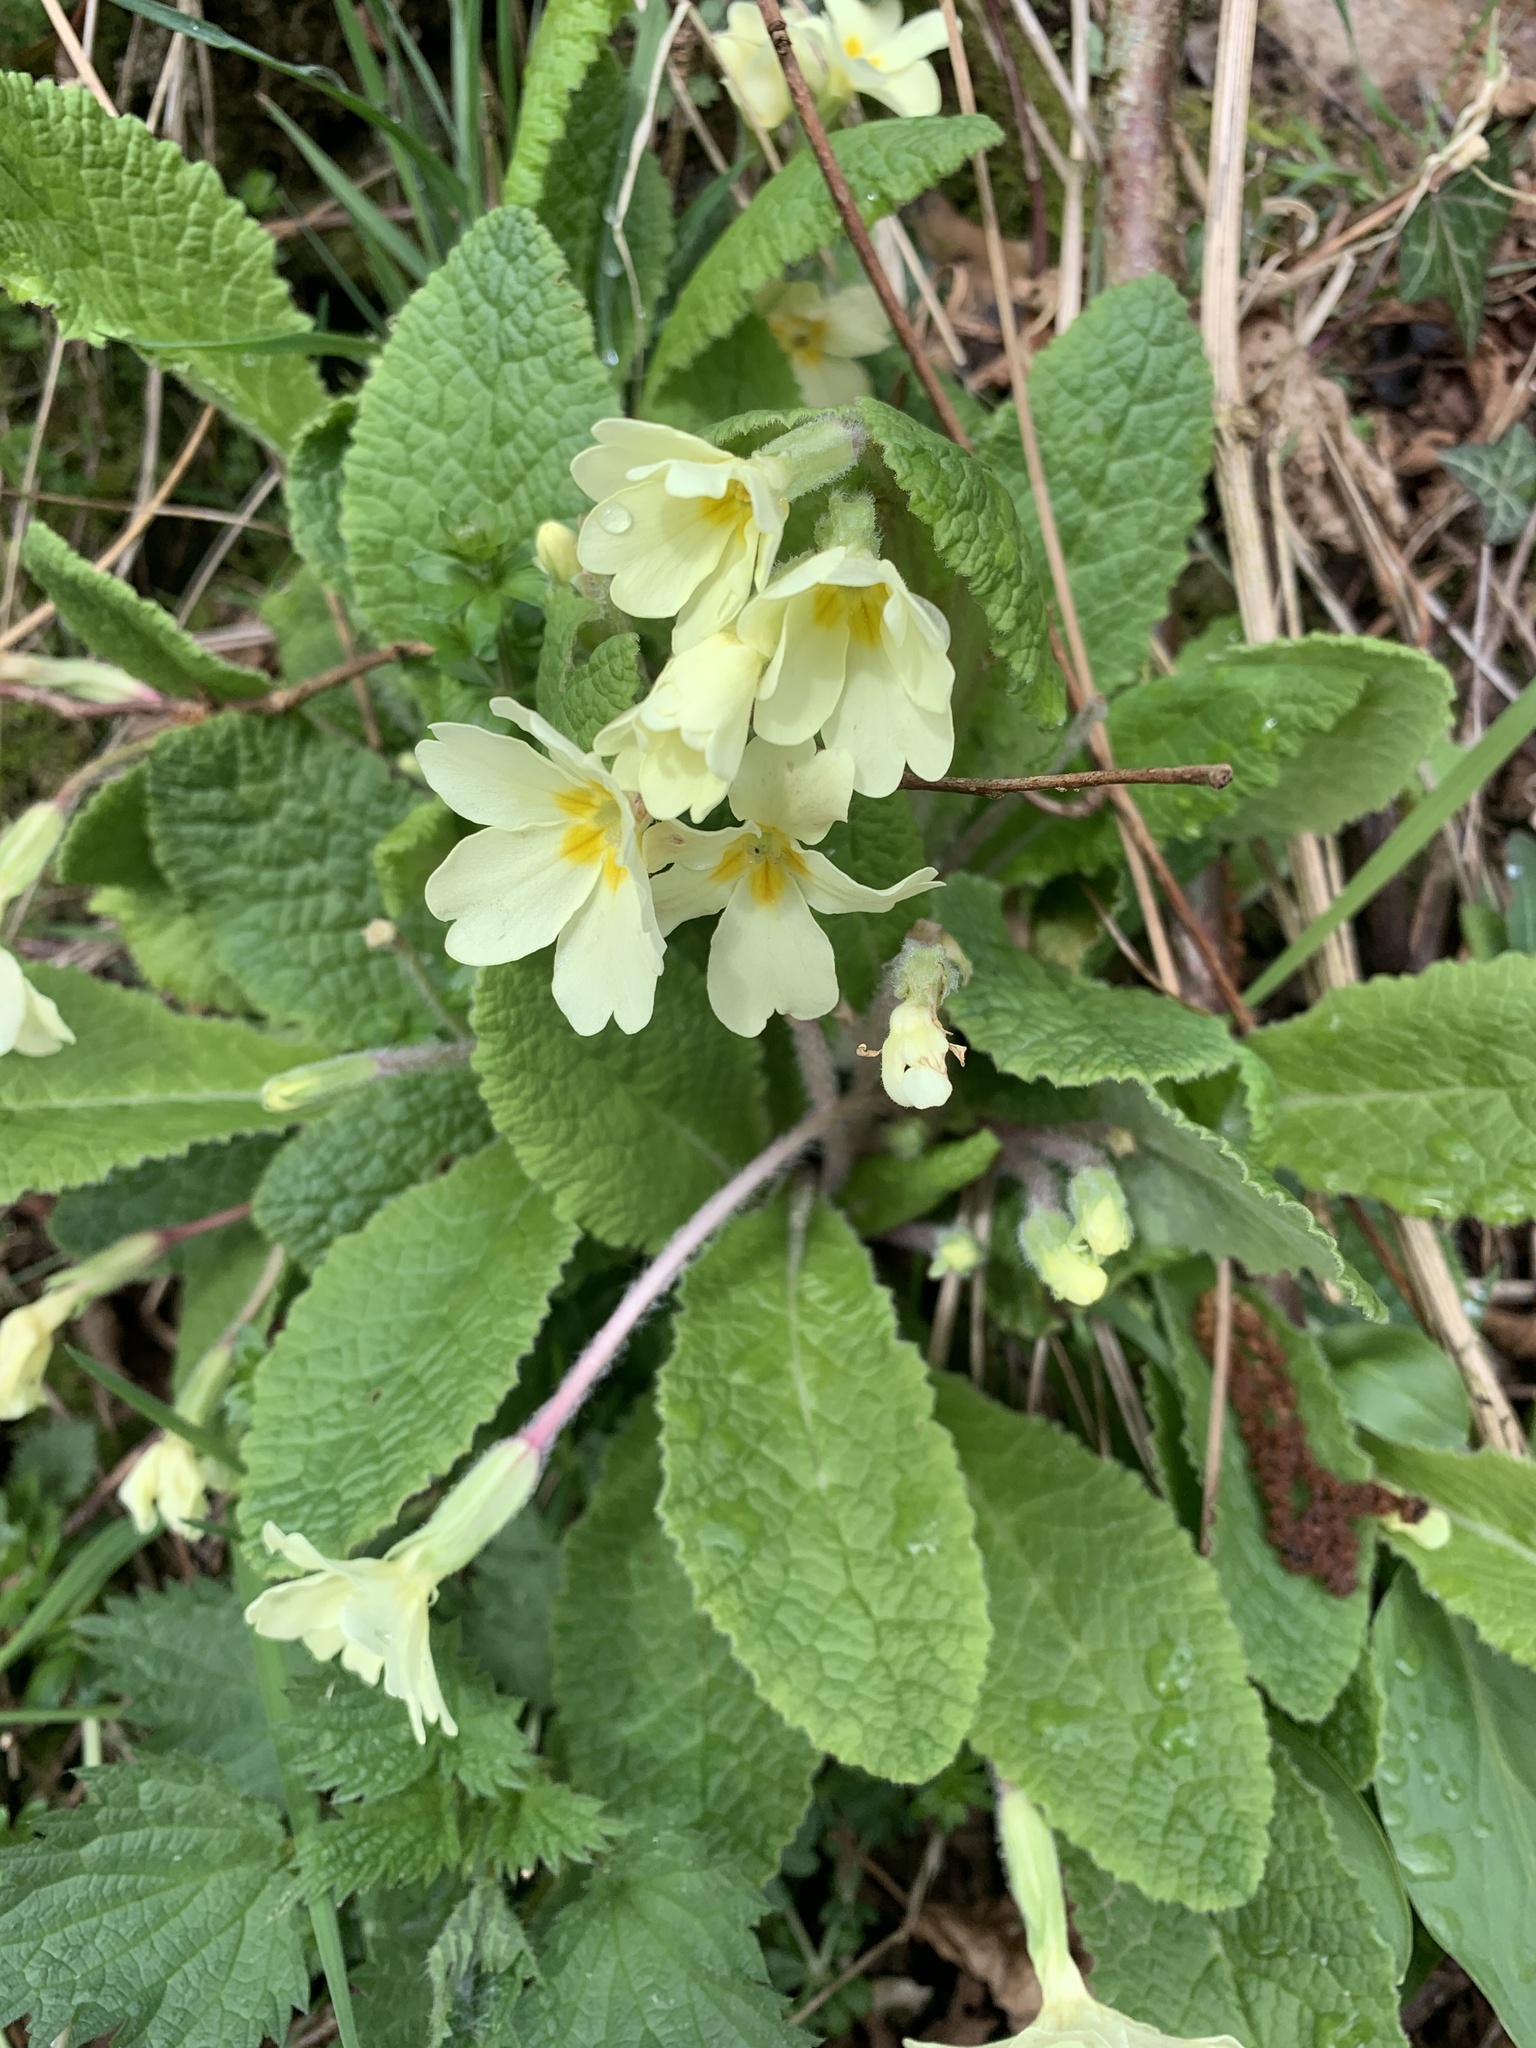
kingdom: Plantae
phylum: Tracheophyta
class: Magnoliopsida
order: Ericales
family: Primulaceae
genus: Primula
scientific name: Primula vulgaris
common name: Primrose
